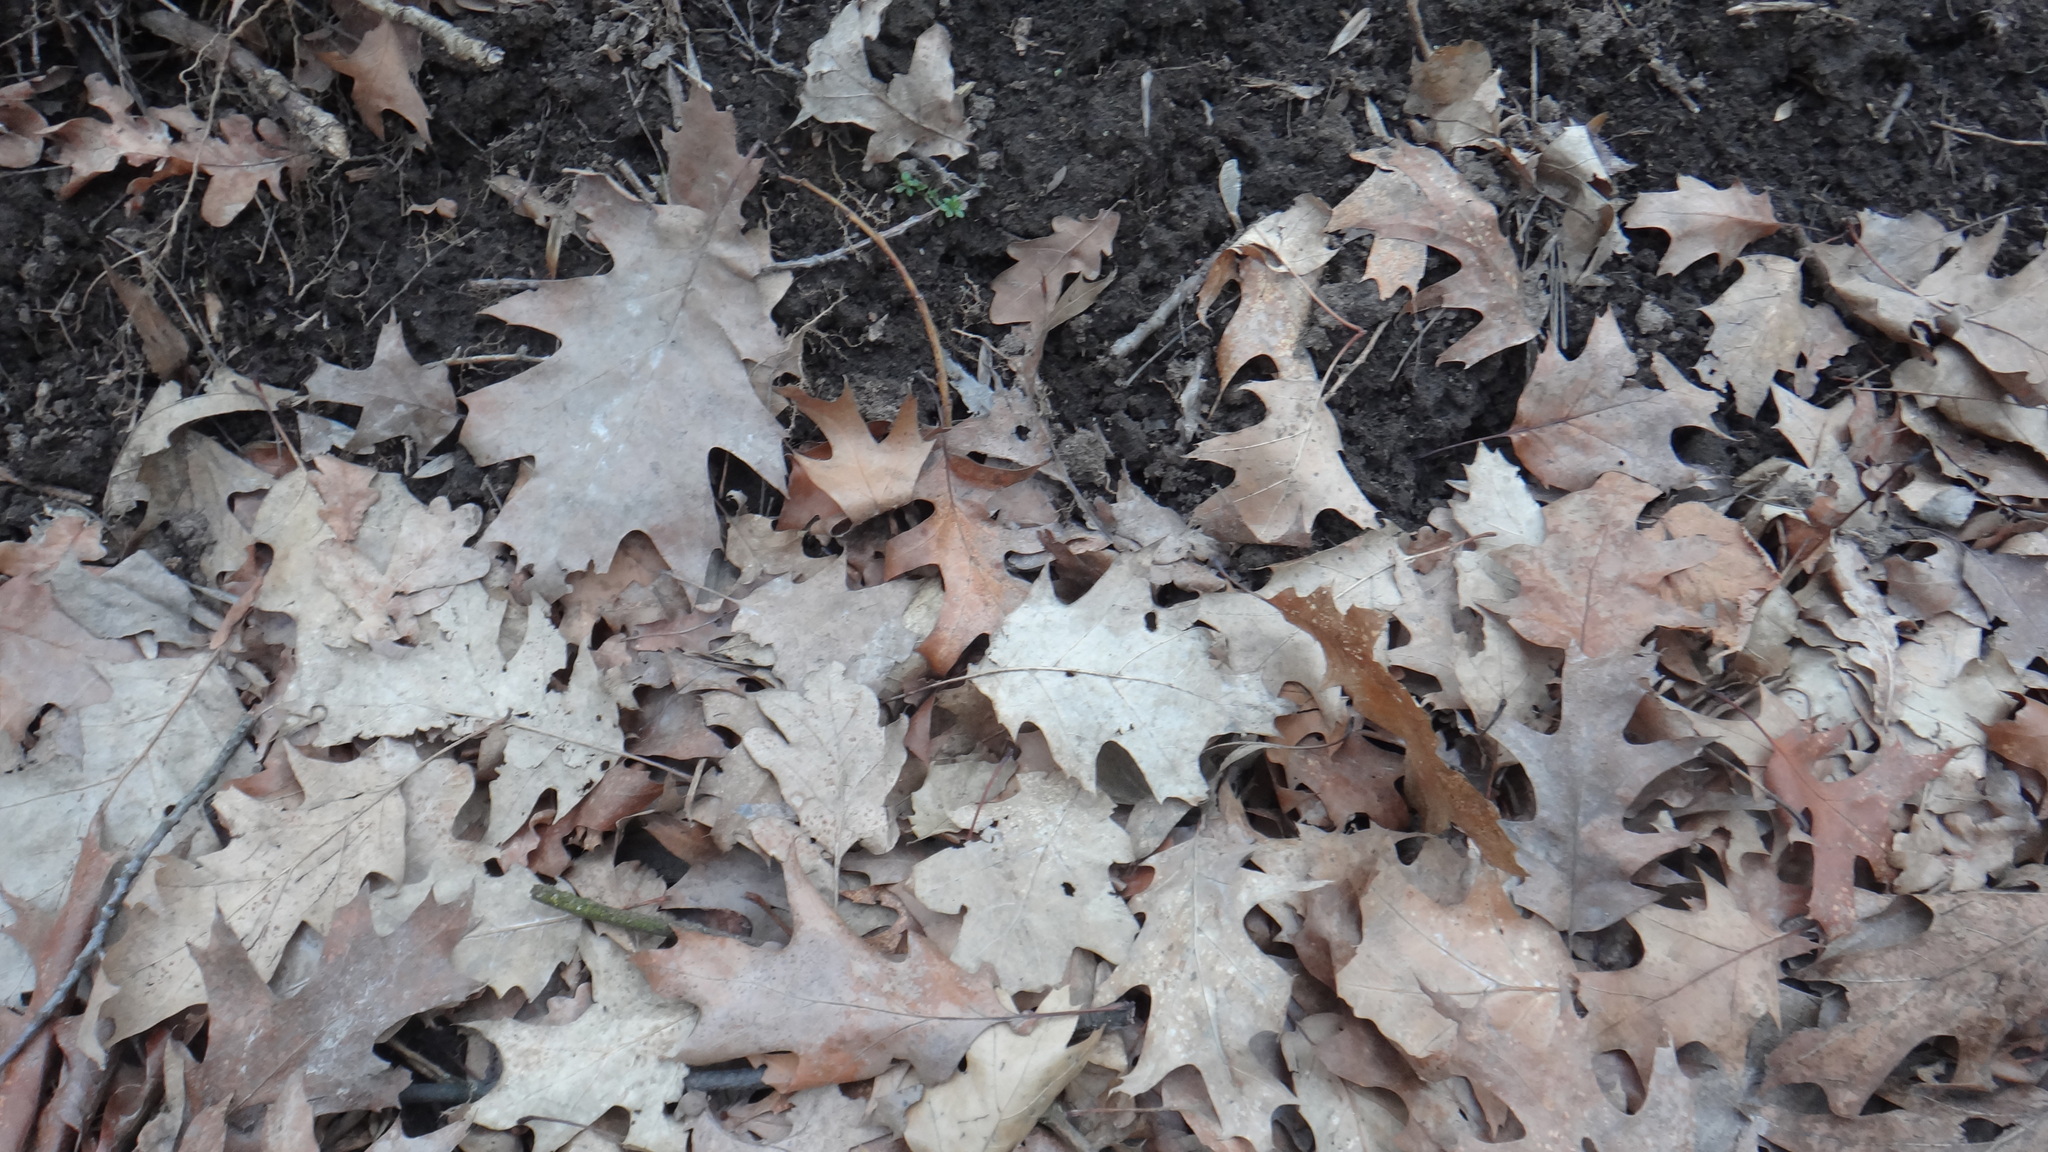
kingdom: Plantae
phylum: Tracheophyta
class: Magnoliopsida
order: Fagales
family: Fagaceae
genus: Quercus
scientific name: Quercus rubra
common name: Red oak
